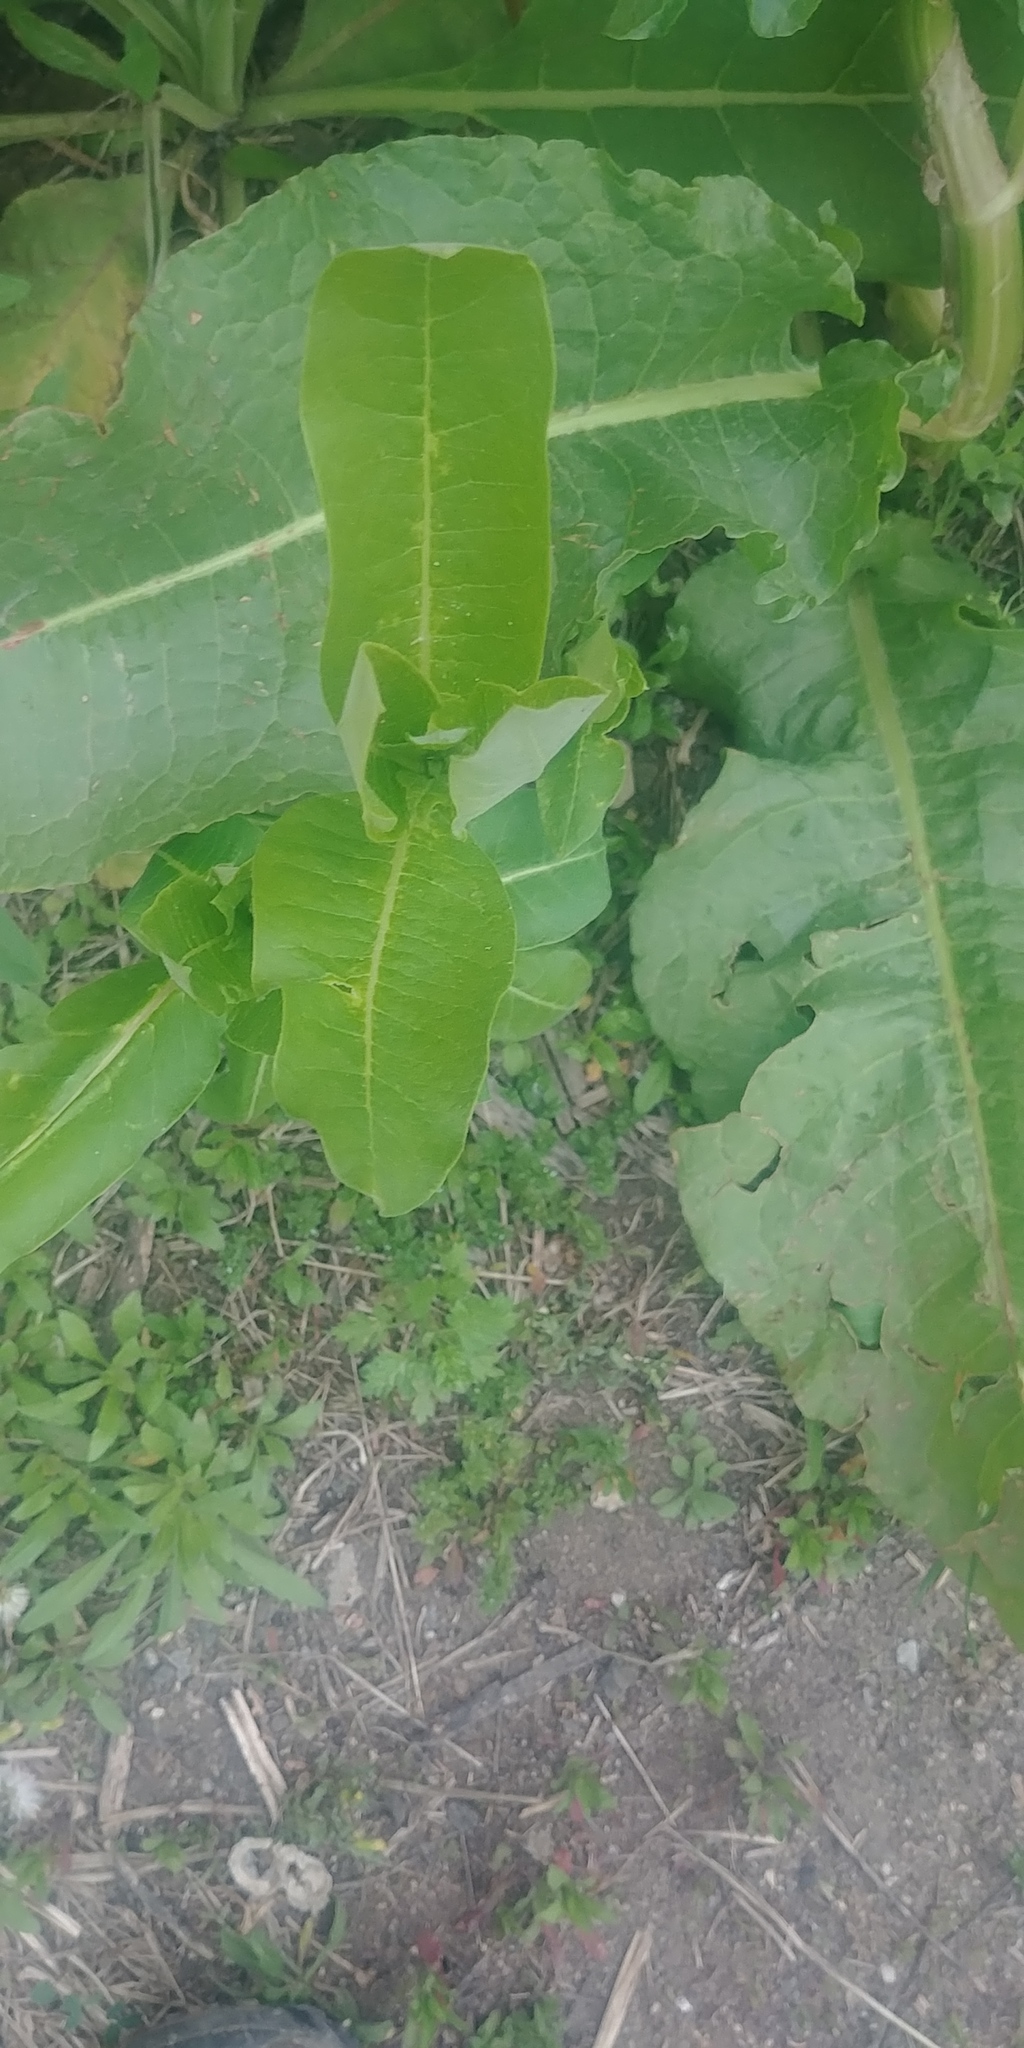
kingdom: Plantae
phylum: Tracheophyta
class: Magnoliopsida
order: Gentianales
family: Apocynaceae
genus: Asclepias
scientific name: Asclepias syriaca
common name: Common milkweed
